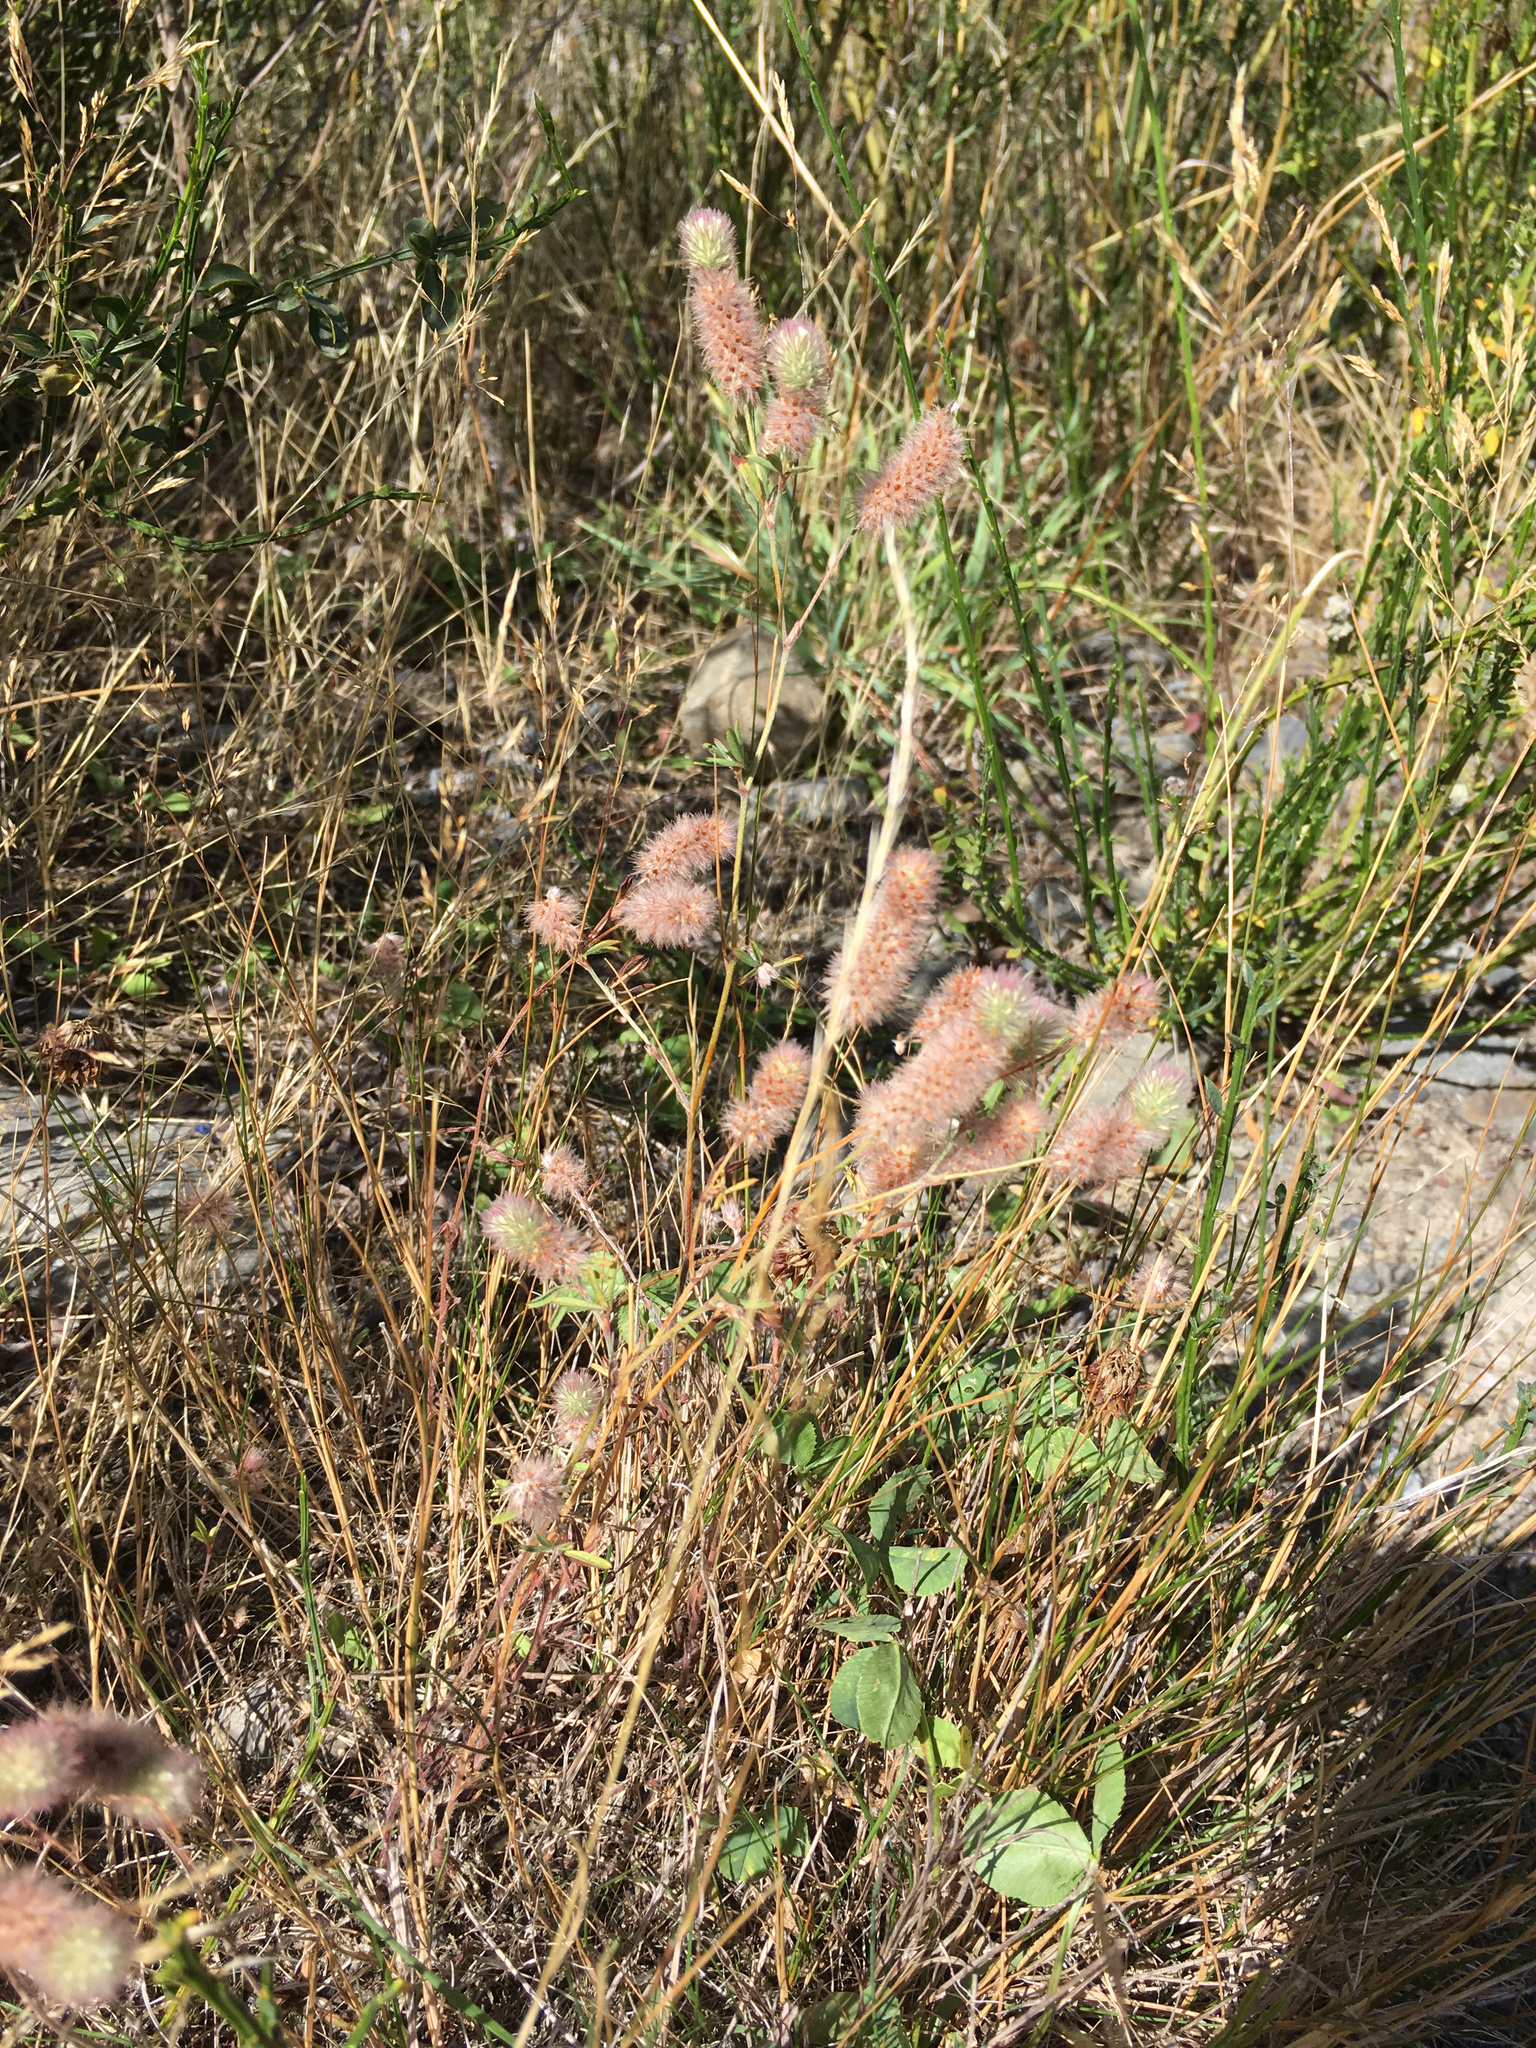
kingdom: Plantae
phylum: Tracheophyta
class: Magnoliopsida
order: Fabales
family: Fabaceae
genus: Trifolium
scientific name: Trifolium arvense
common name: Hare's-foot clover
